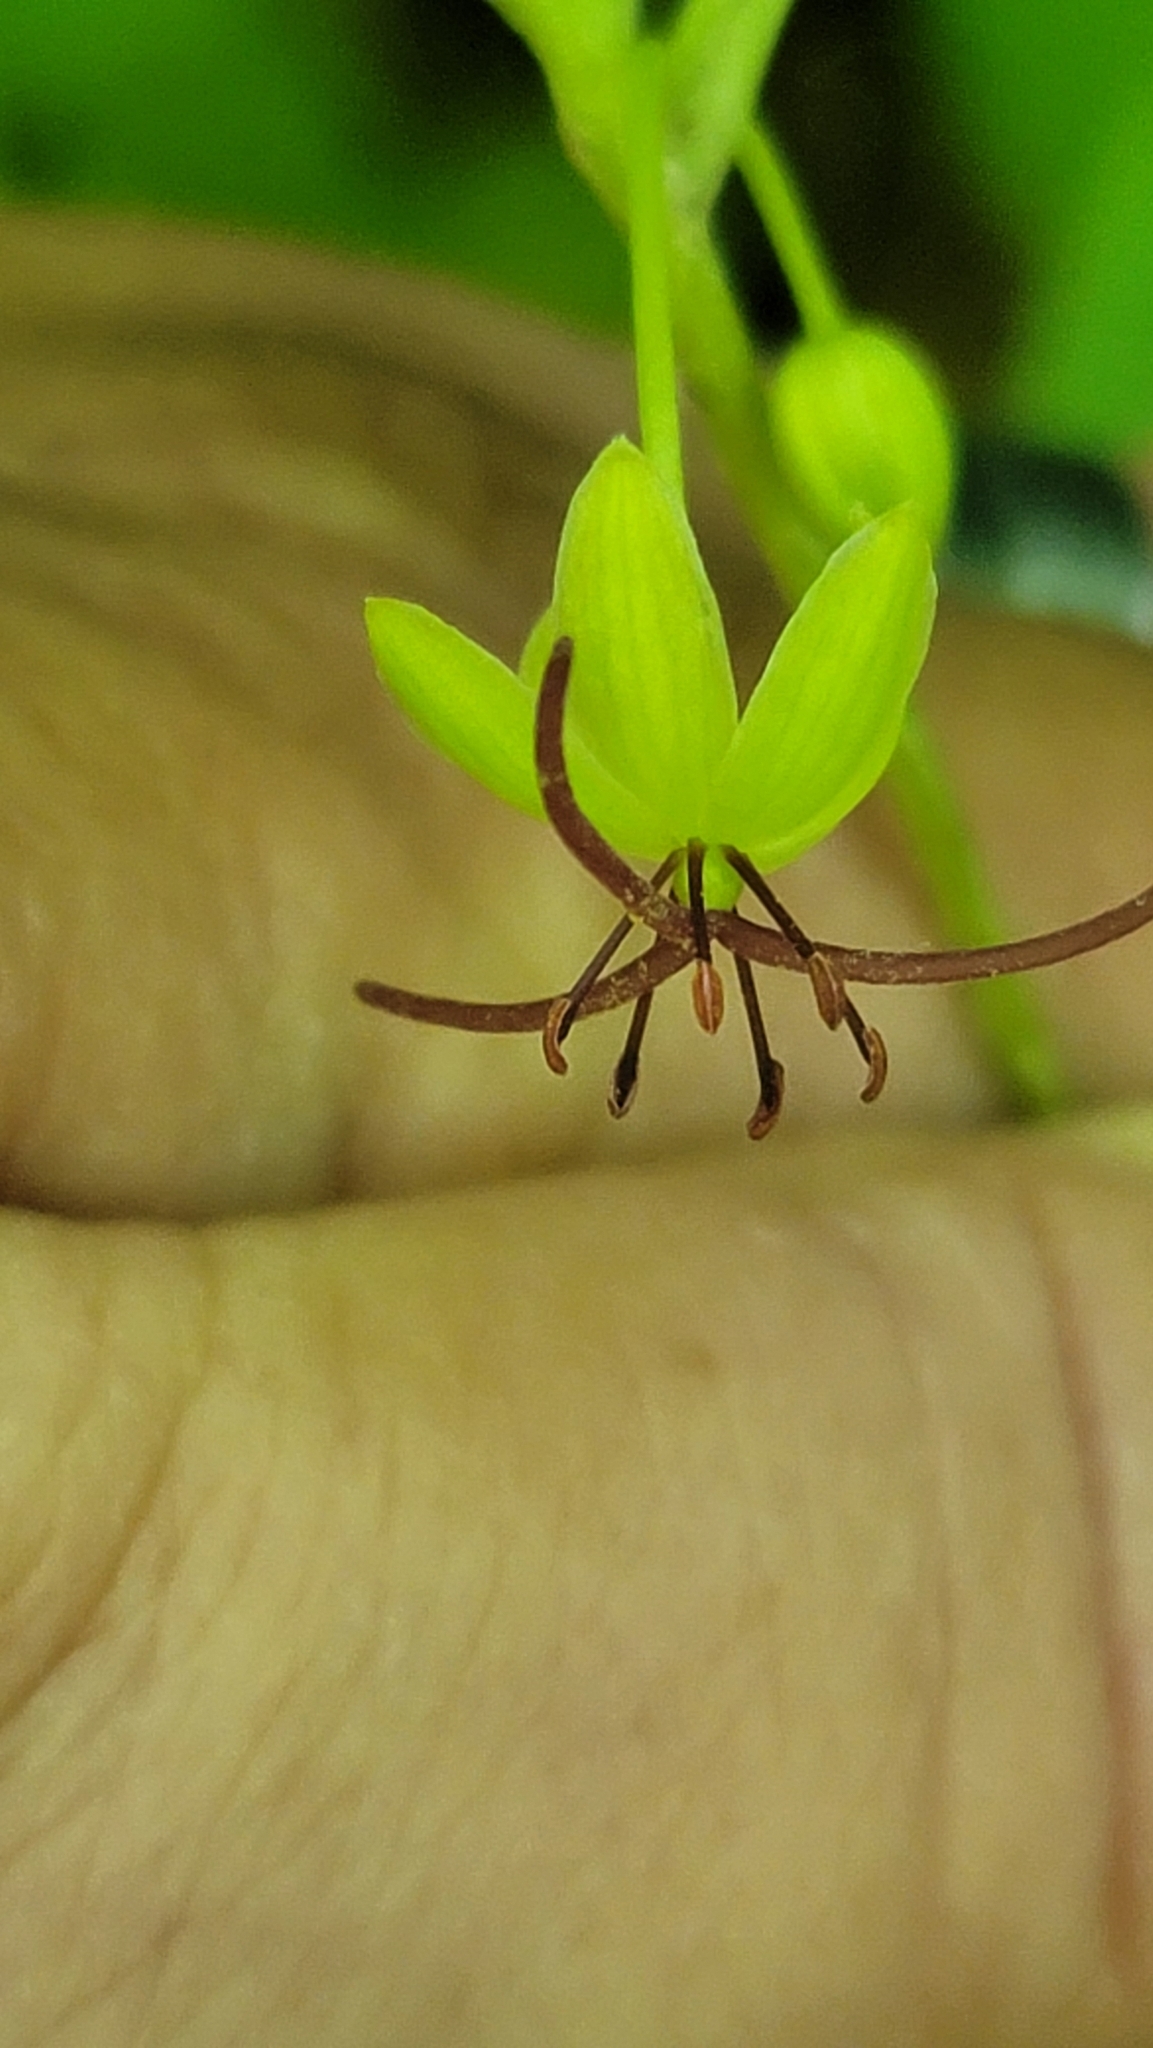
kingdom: Plantae
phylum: Tracheophyta
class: Liliopsida
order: Liliales
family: Liliaceae
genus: Medeola
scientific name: Medeola virginiana
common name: Indian cucumber-root
